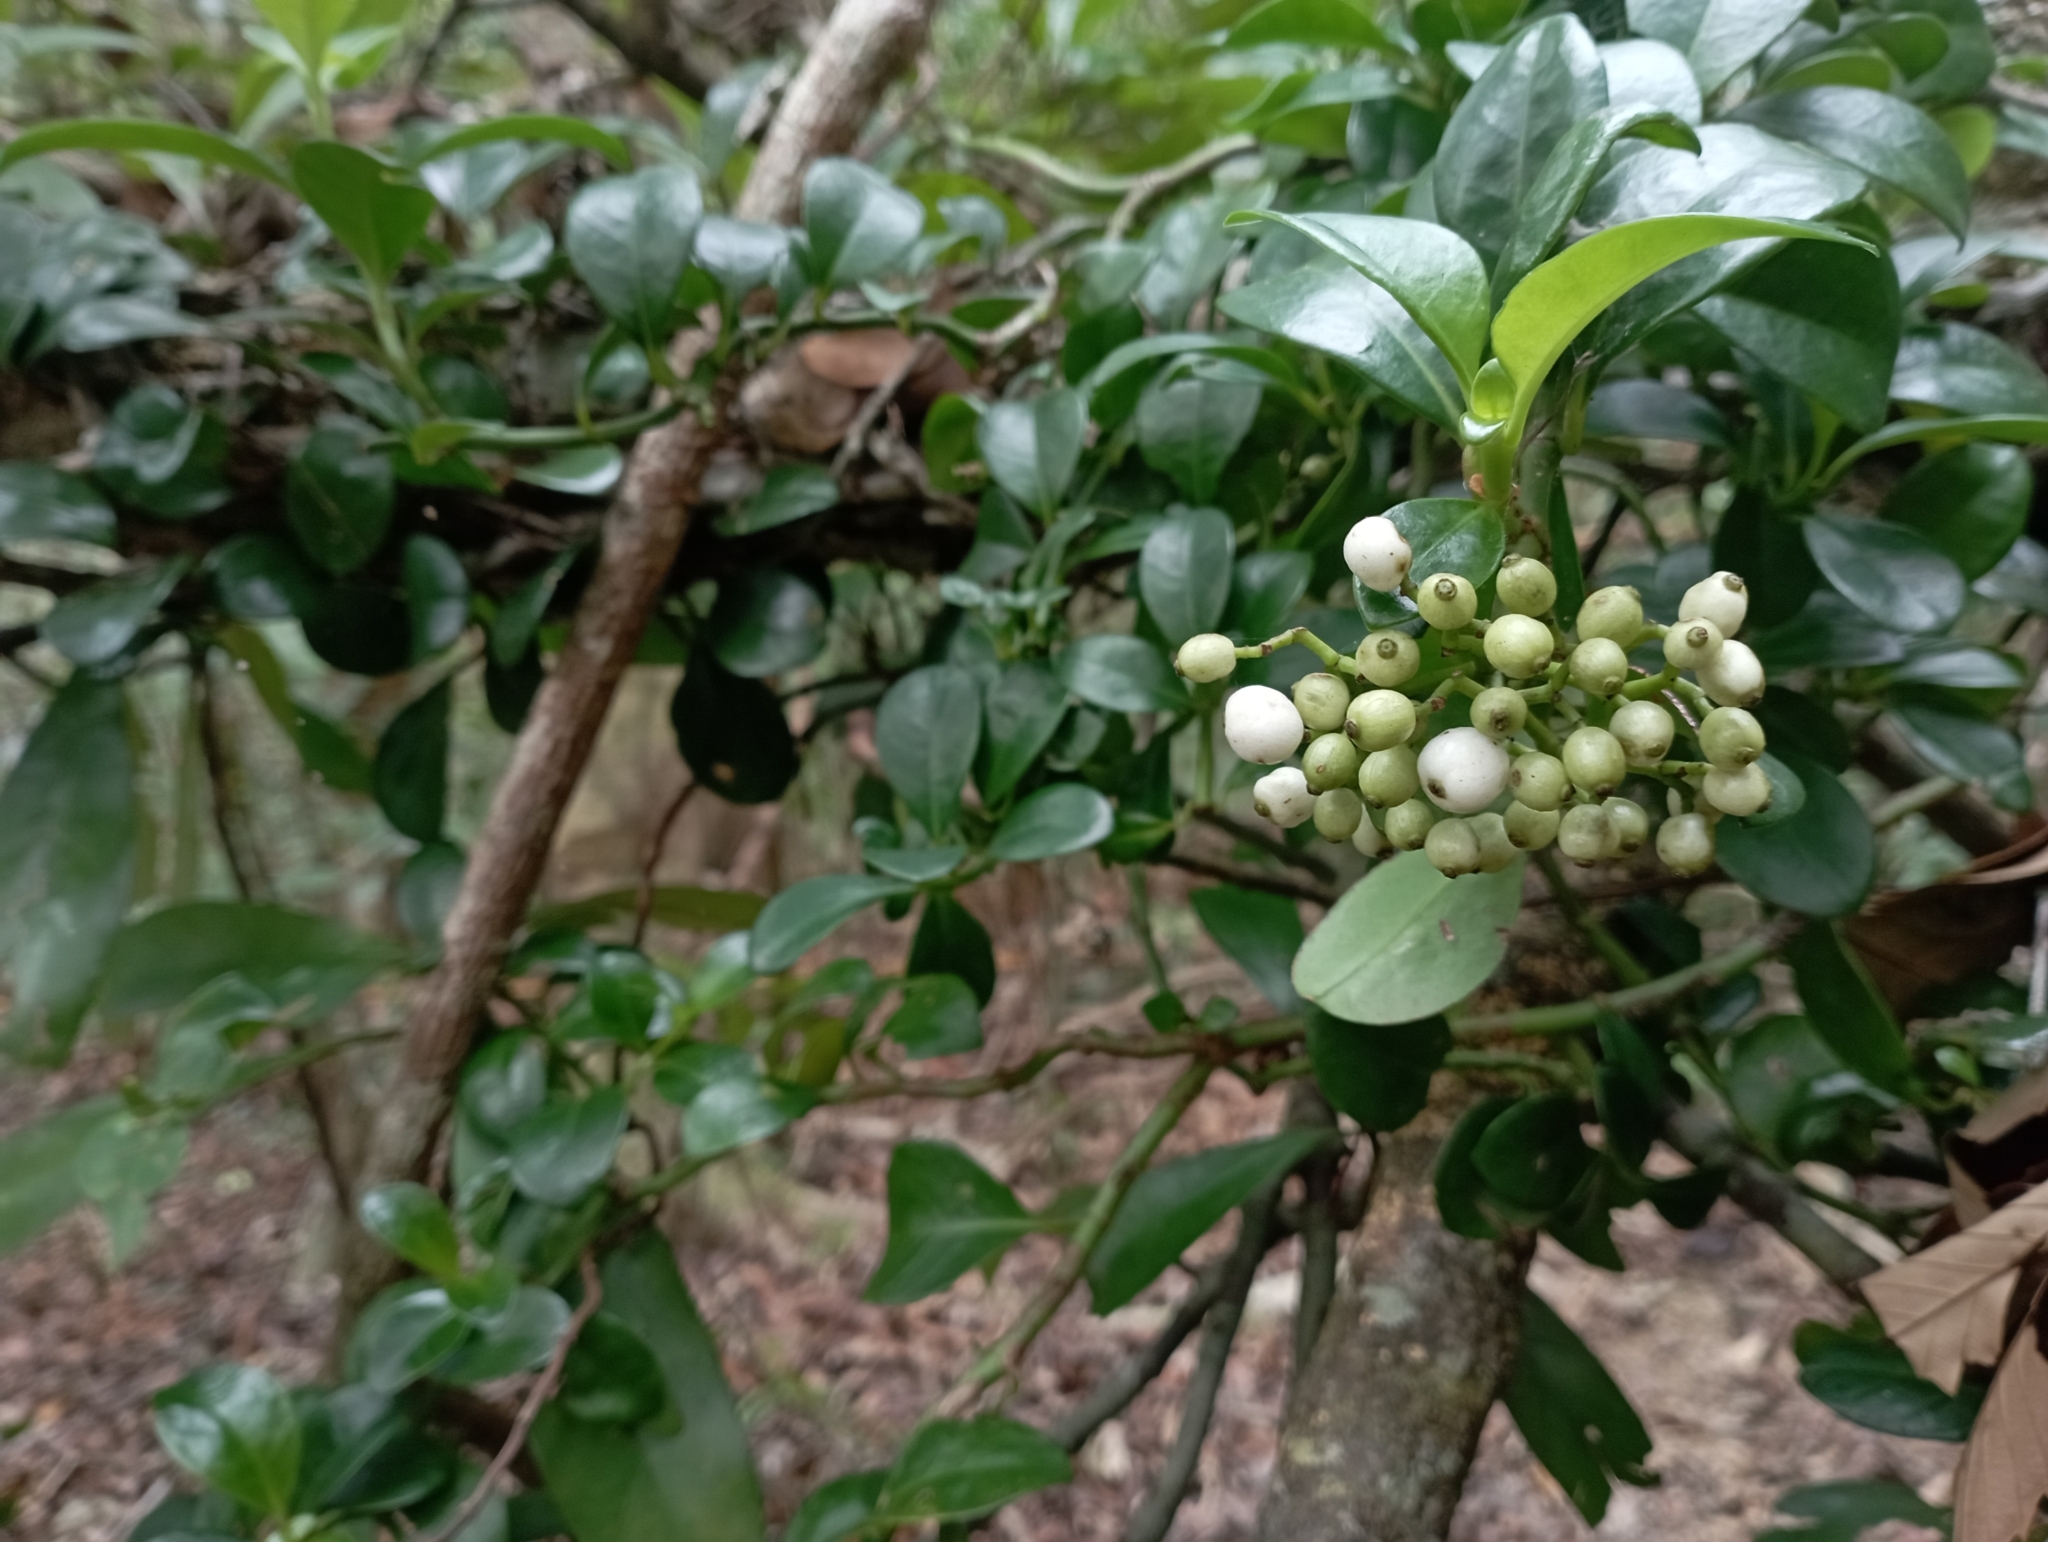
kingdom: Plantae
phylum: Tracheophyta
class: Magnoliopsida
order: Gentianales
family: Rubiaceae
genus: Psychotria
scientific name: Psychotria serpens
